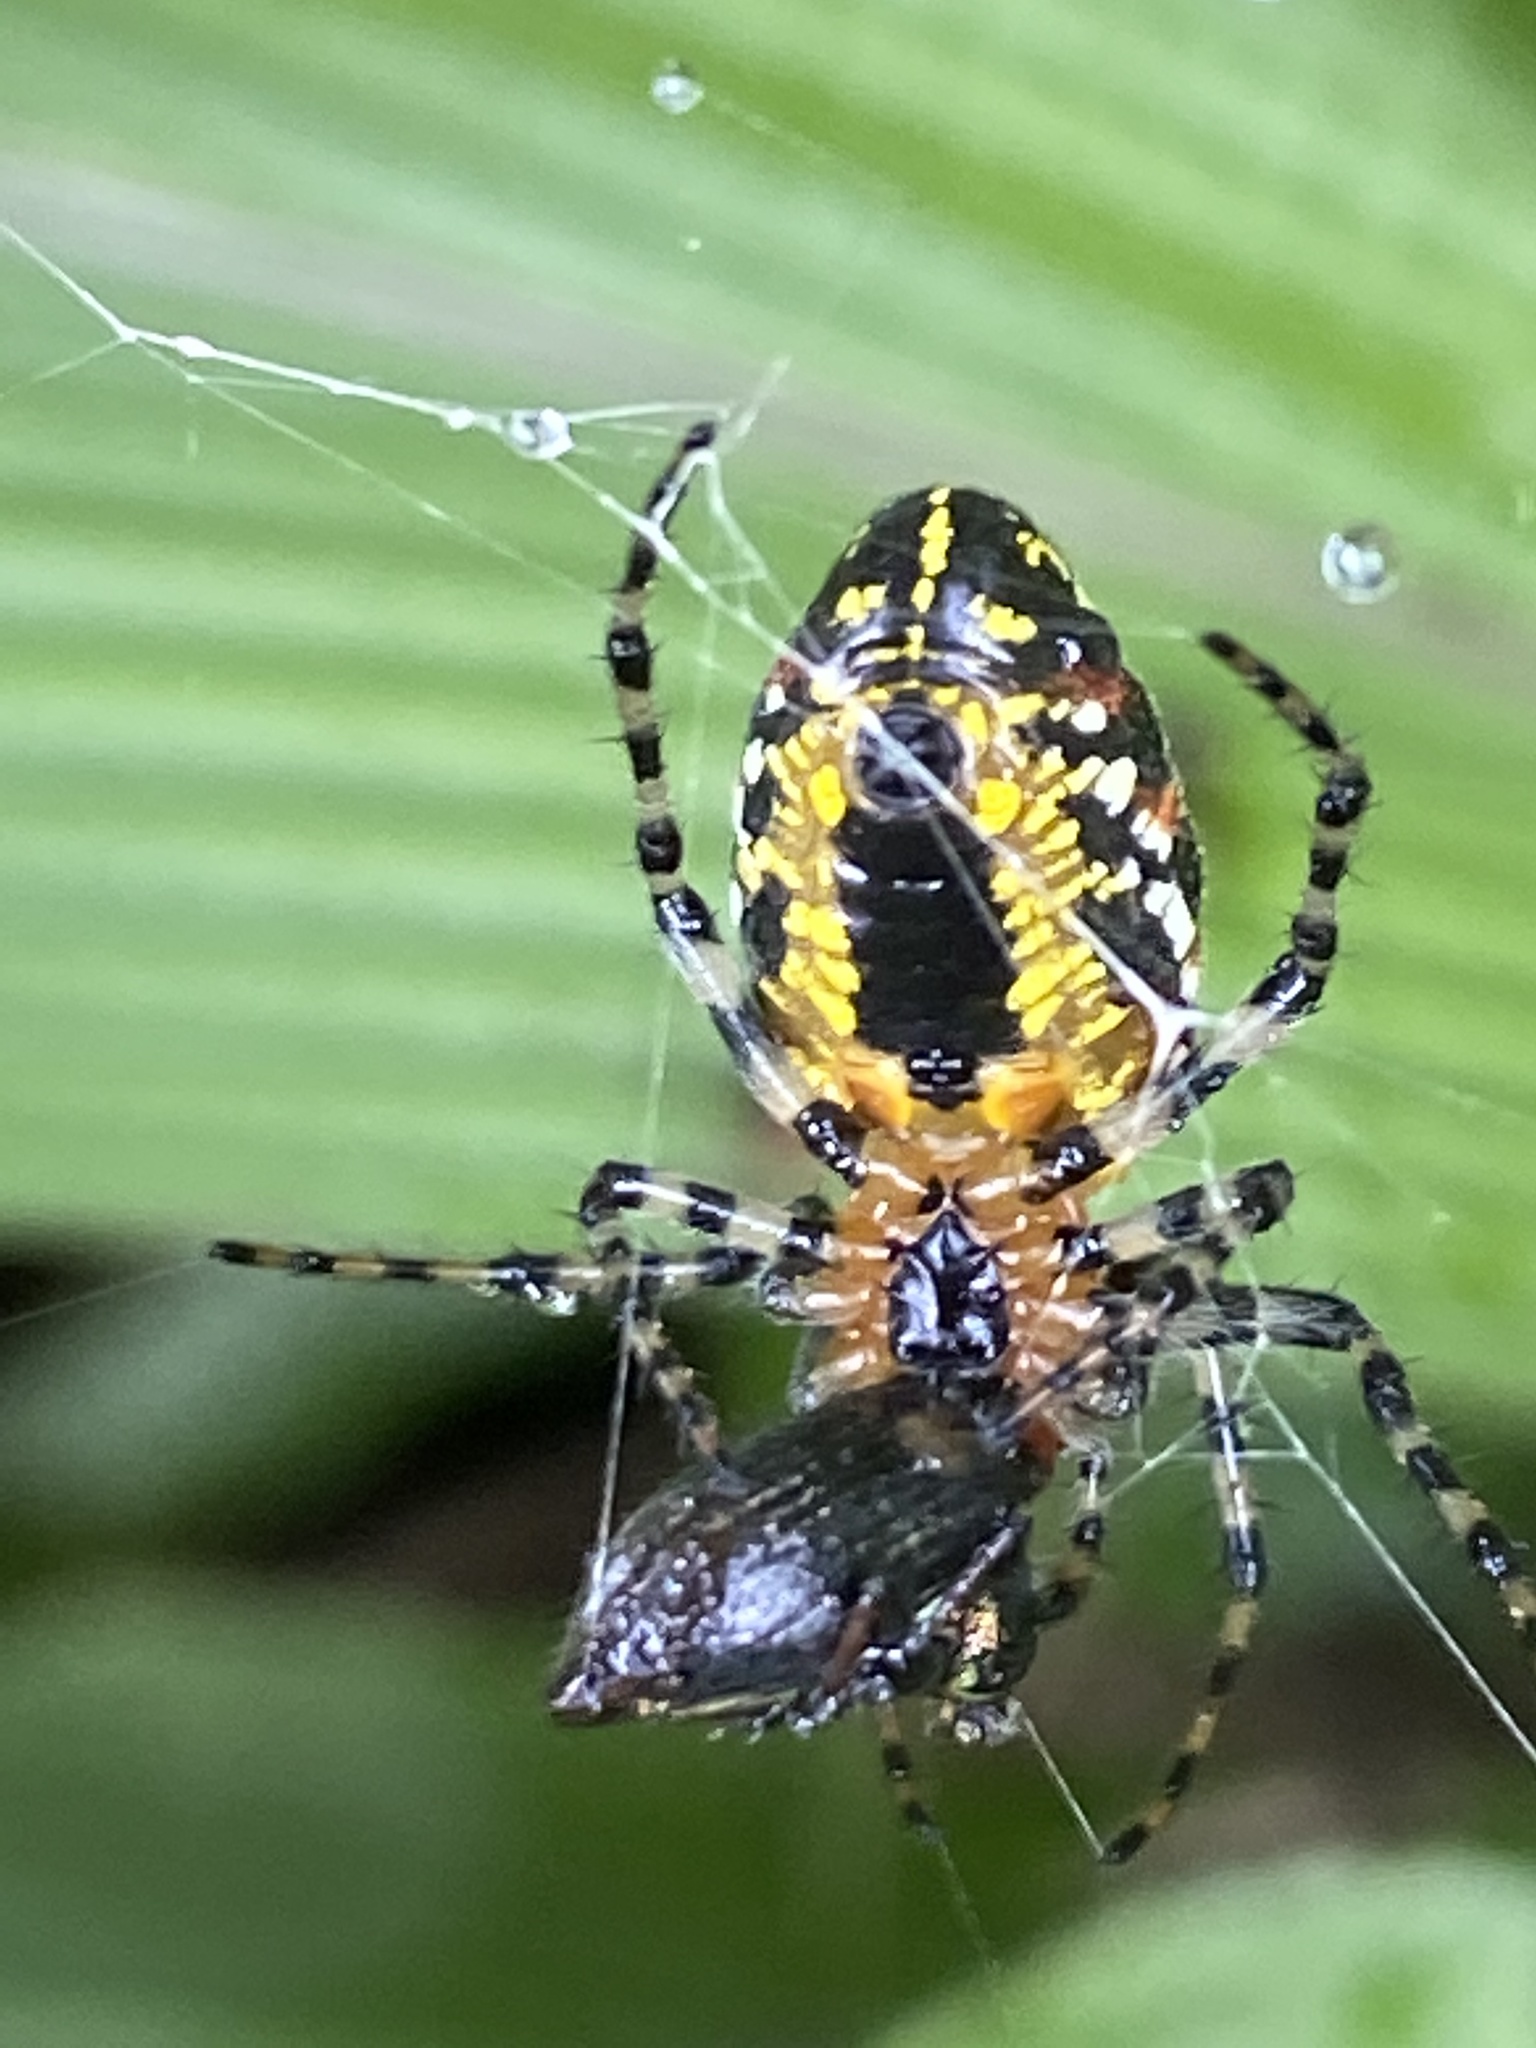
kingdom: Animalia
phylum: Arthropoda
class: Arachnida
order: Araneae
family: Araneidae
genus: Alpaida
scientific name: Alpaida grayi
